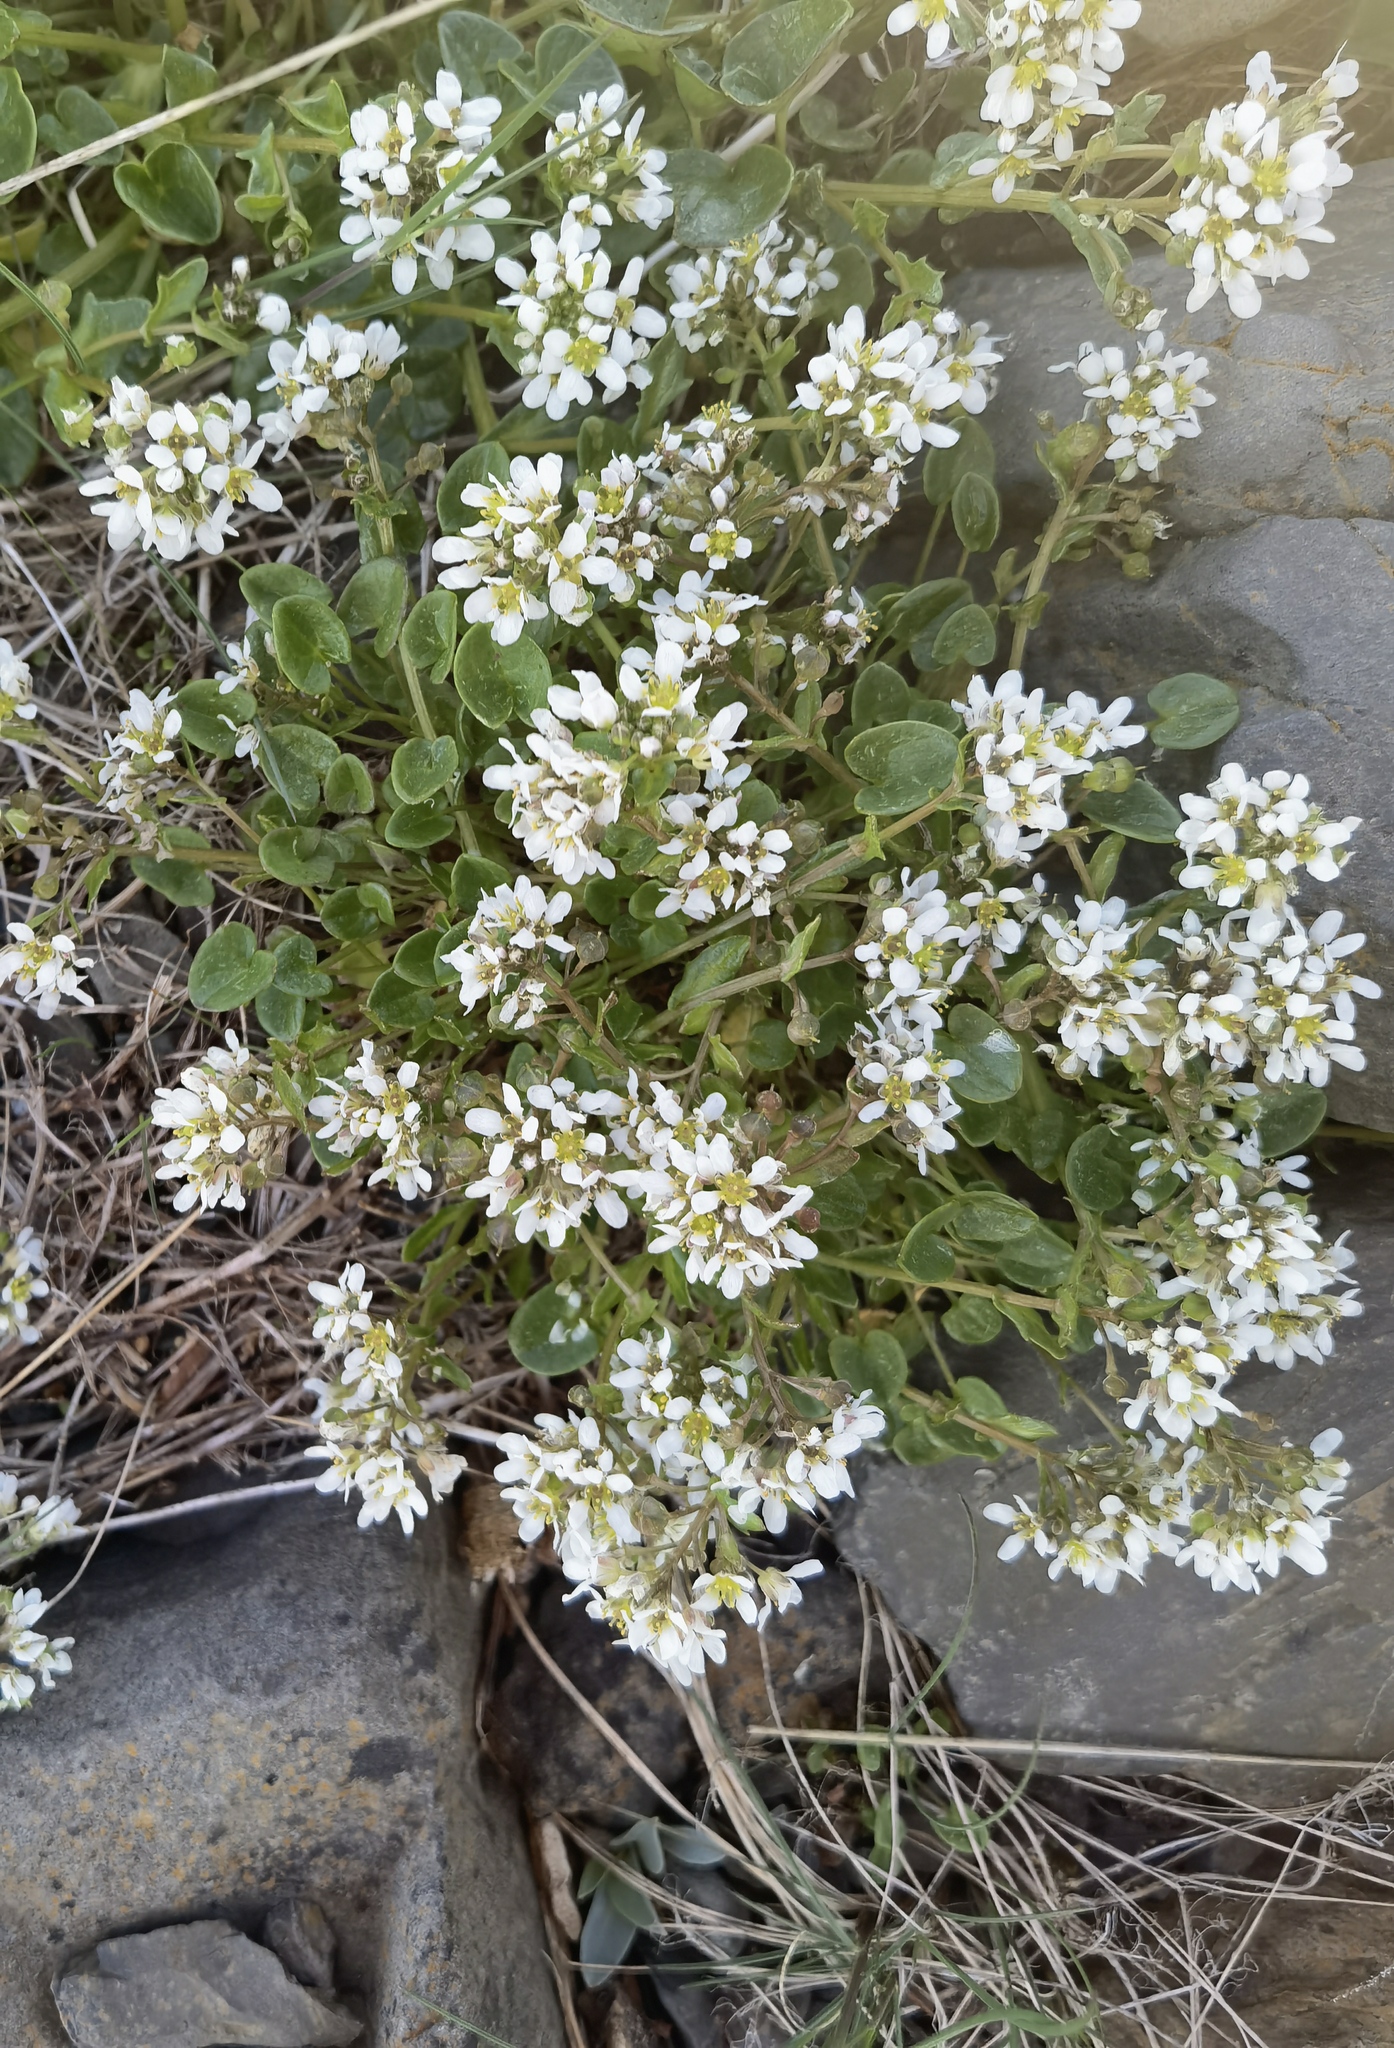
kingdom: Plantae
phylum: Tracheophyta
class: Magnoliopsida
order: Brassicales
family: Brassicaceae
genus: Cochlearia
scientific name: Cochlearia officinalis
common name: Scurvy-grass
